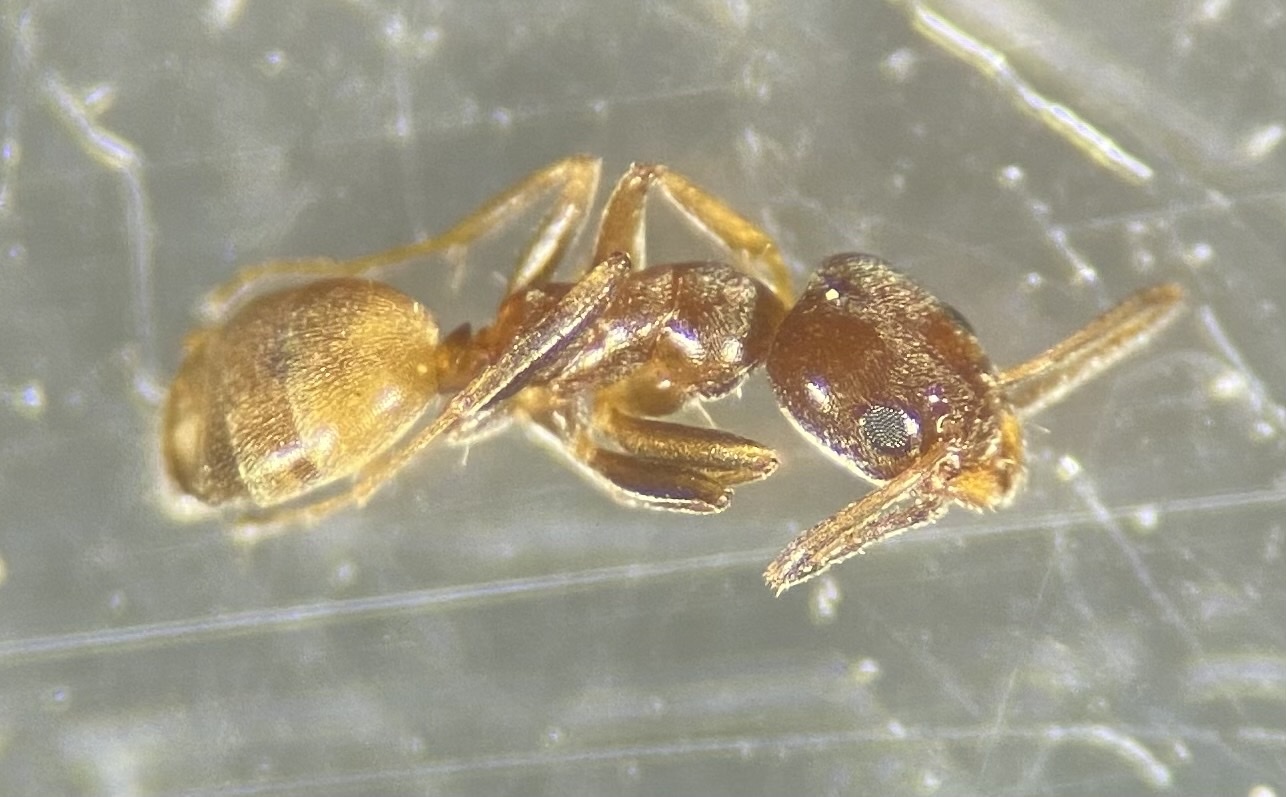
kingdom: Animalia
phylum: Arthropoda
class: Insecta
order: Hymenoptera
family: Formicidae
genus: Forelius
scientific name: Forelius pruinosus
